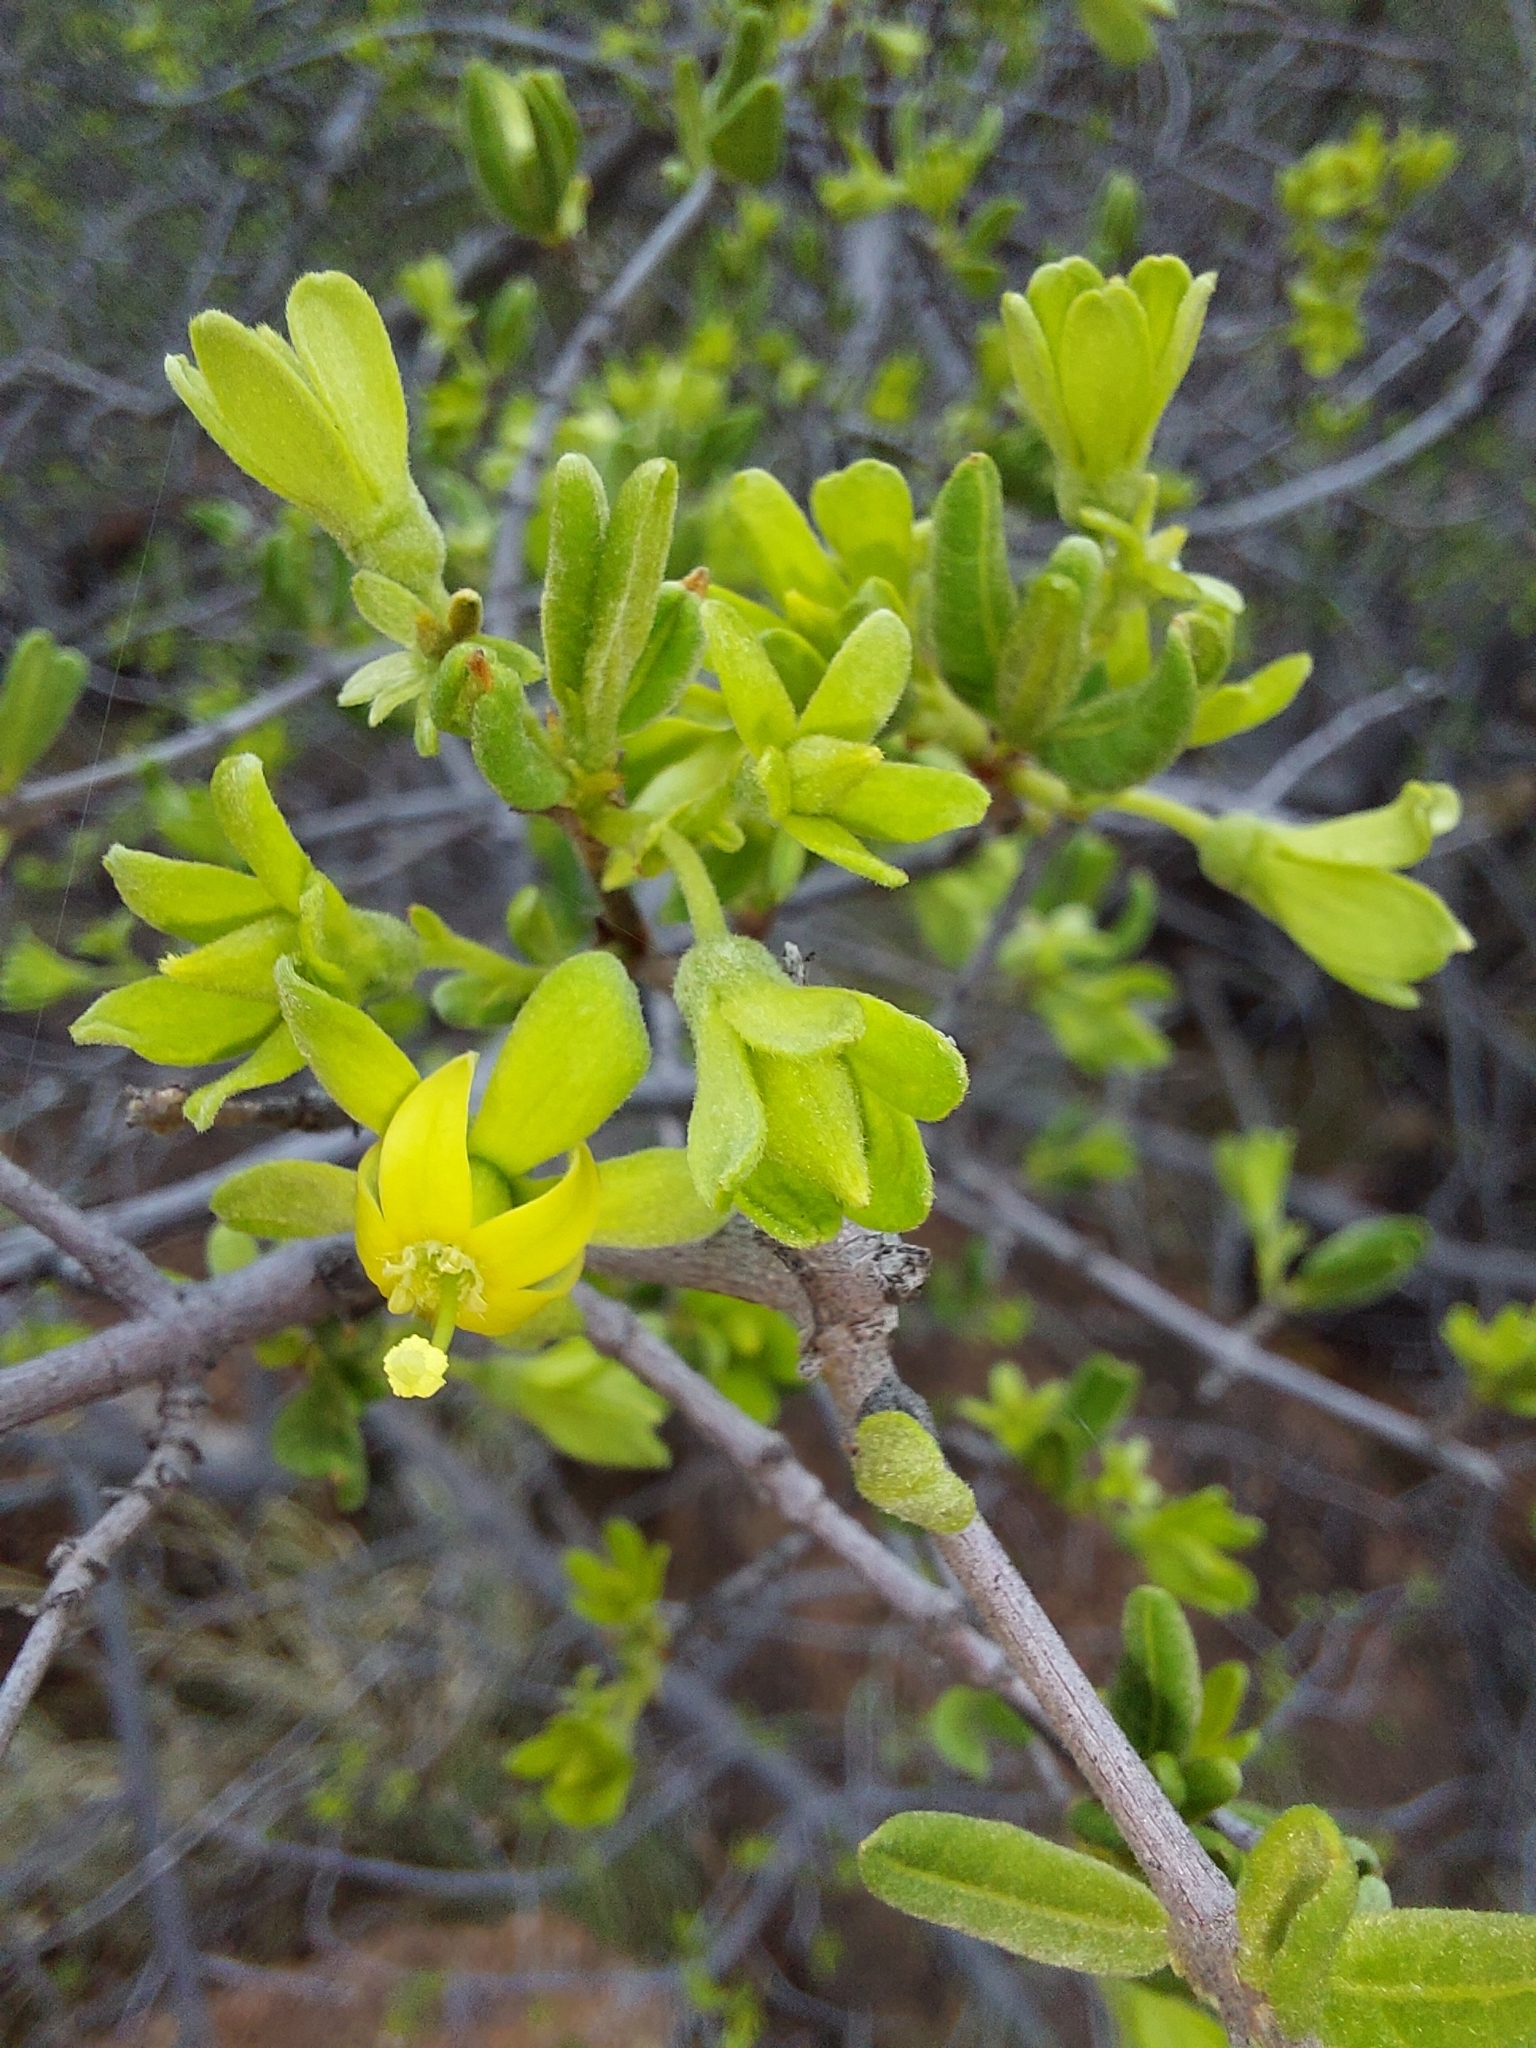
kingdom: Plantae
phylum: Tracheophyta
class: Magnoliopsida
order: Gentianales
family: Rubiaceae
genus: Vangueria
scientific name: Vangueria triflora
